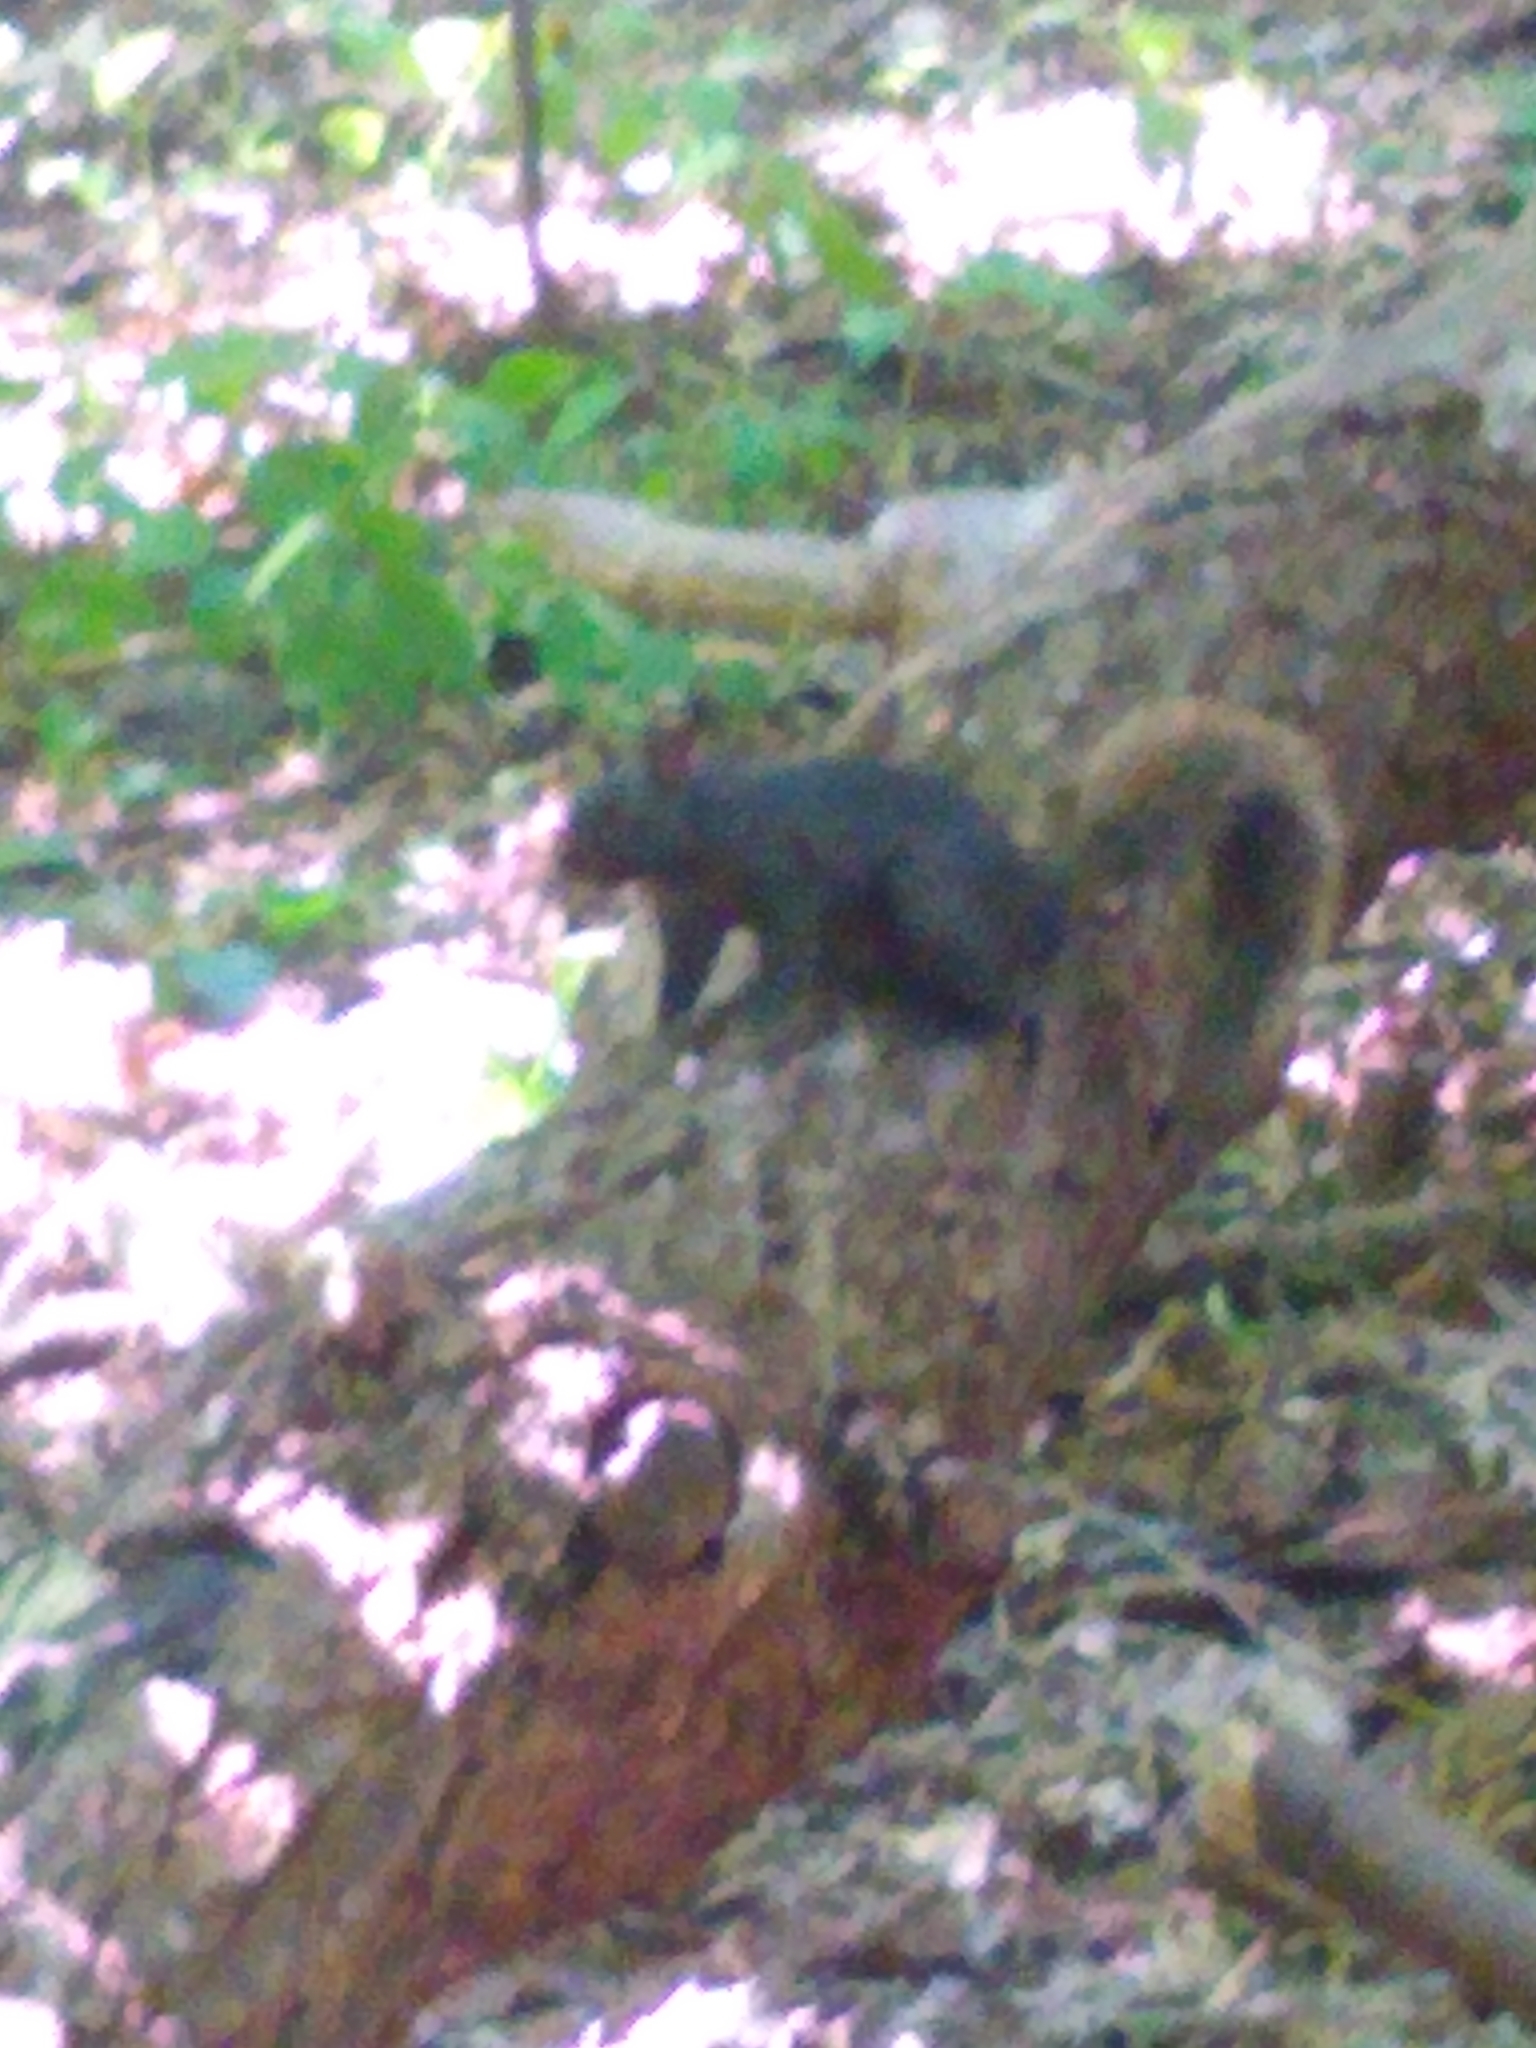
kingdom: Animalia
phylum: Chordata
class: Mammalia
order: Rodentia
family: Sciuridae
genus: Sciurus
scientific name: Sciurus carolinensis
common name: Eastern gray squirrel
